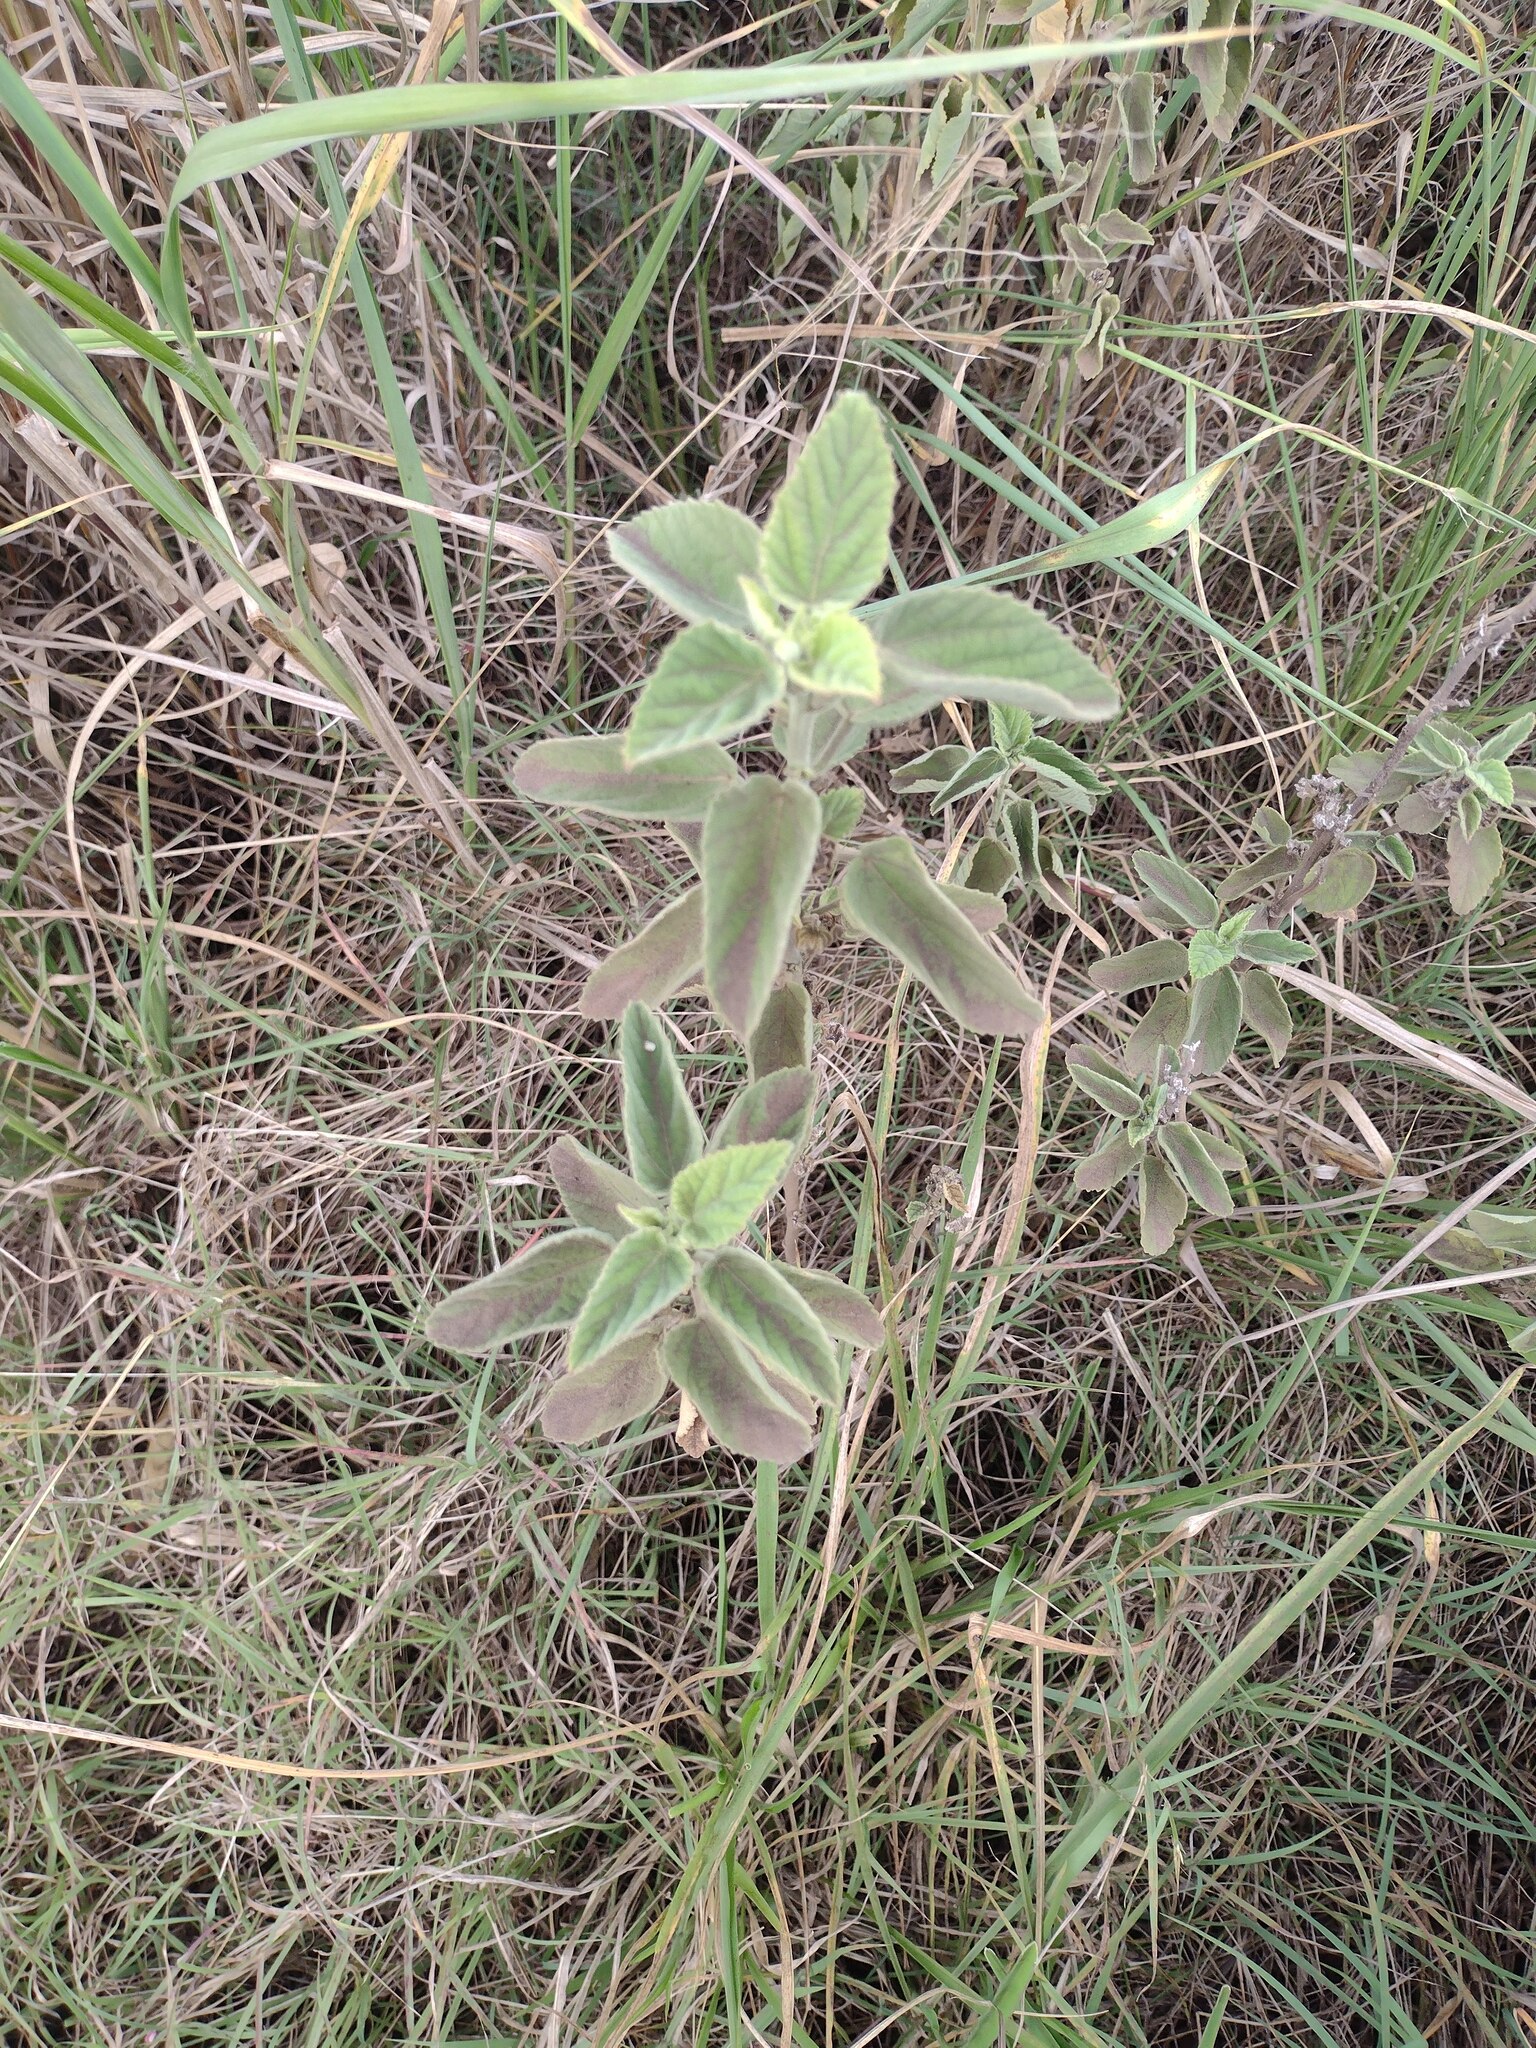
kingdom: Plantae
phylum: Tracheophyta
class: Magnoliopsida
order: Malvales
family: Malvaceae
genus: Sida
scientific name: Sida cordifolia
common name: Ilima
